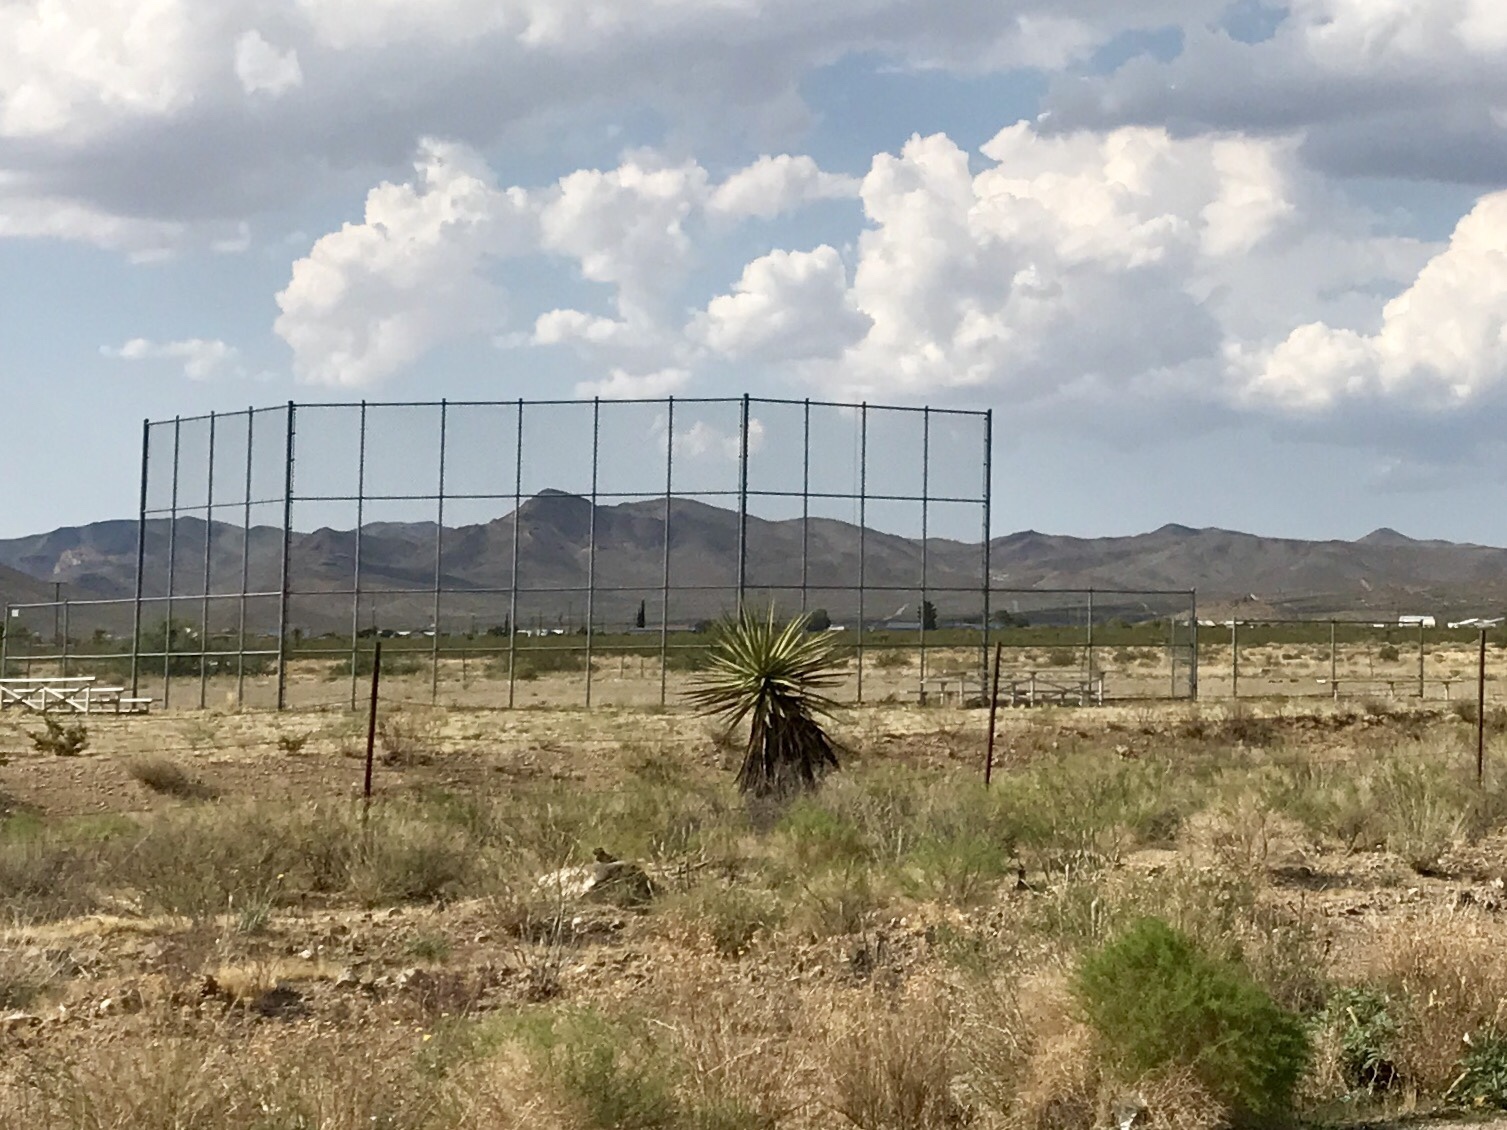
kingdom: Plantae
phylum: Tracheophyta
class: Liliopsida
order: Asparagales
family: Asparagaceae
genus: Yucca
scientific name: Yucca schidigera
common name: Mojave yucca
